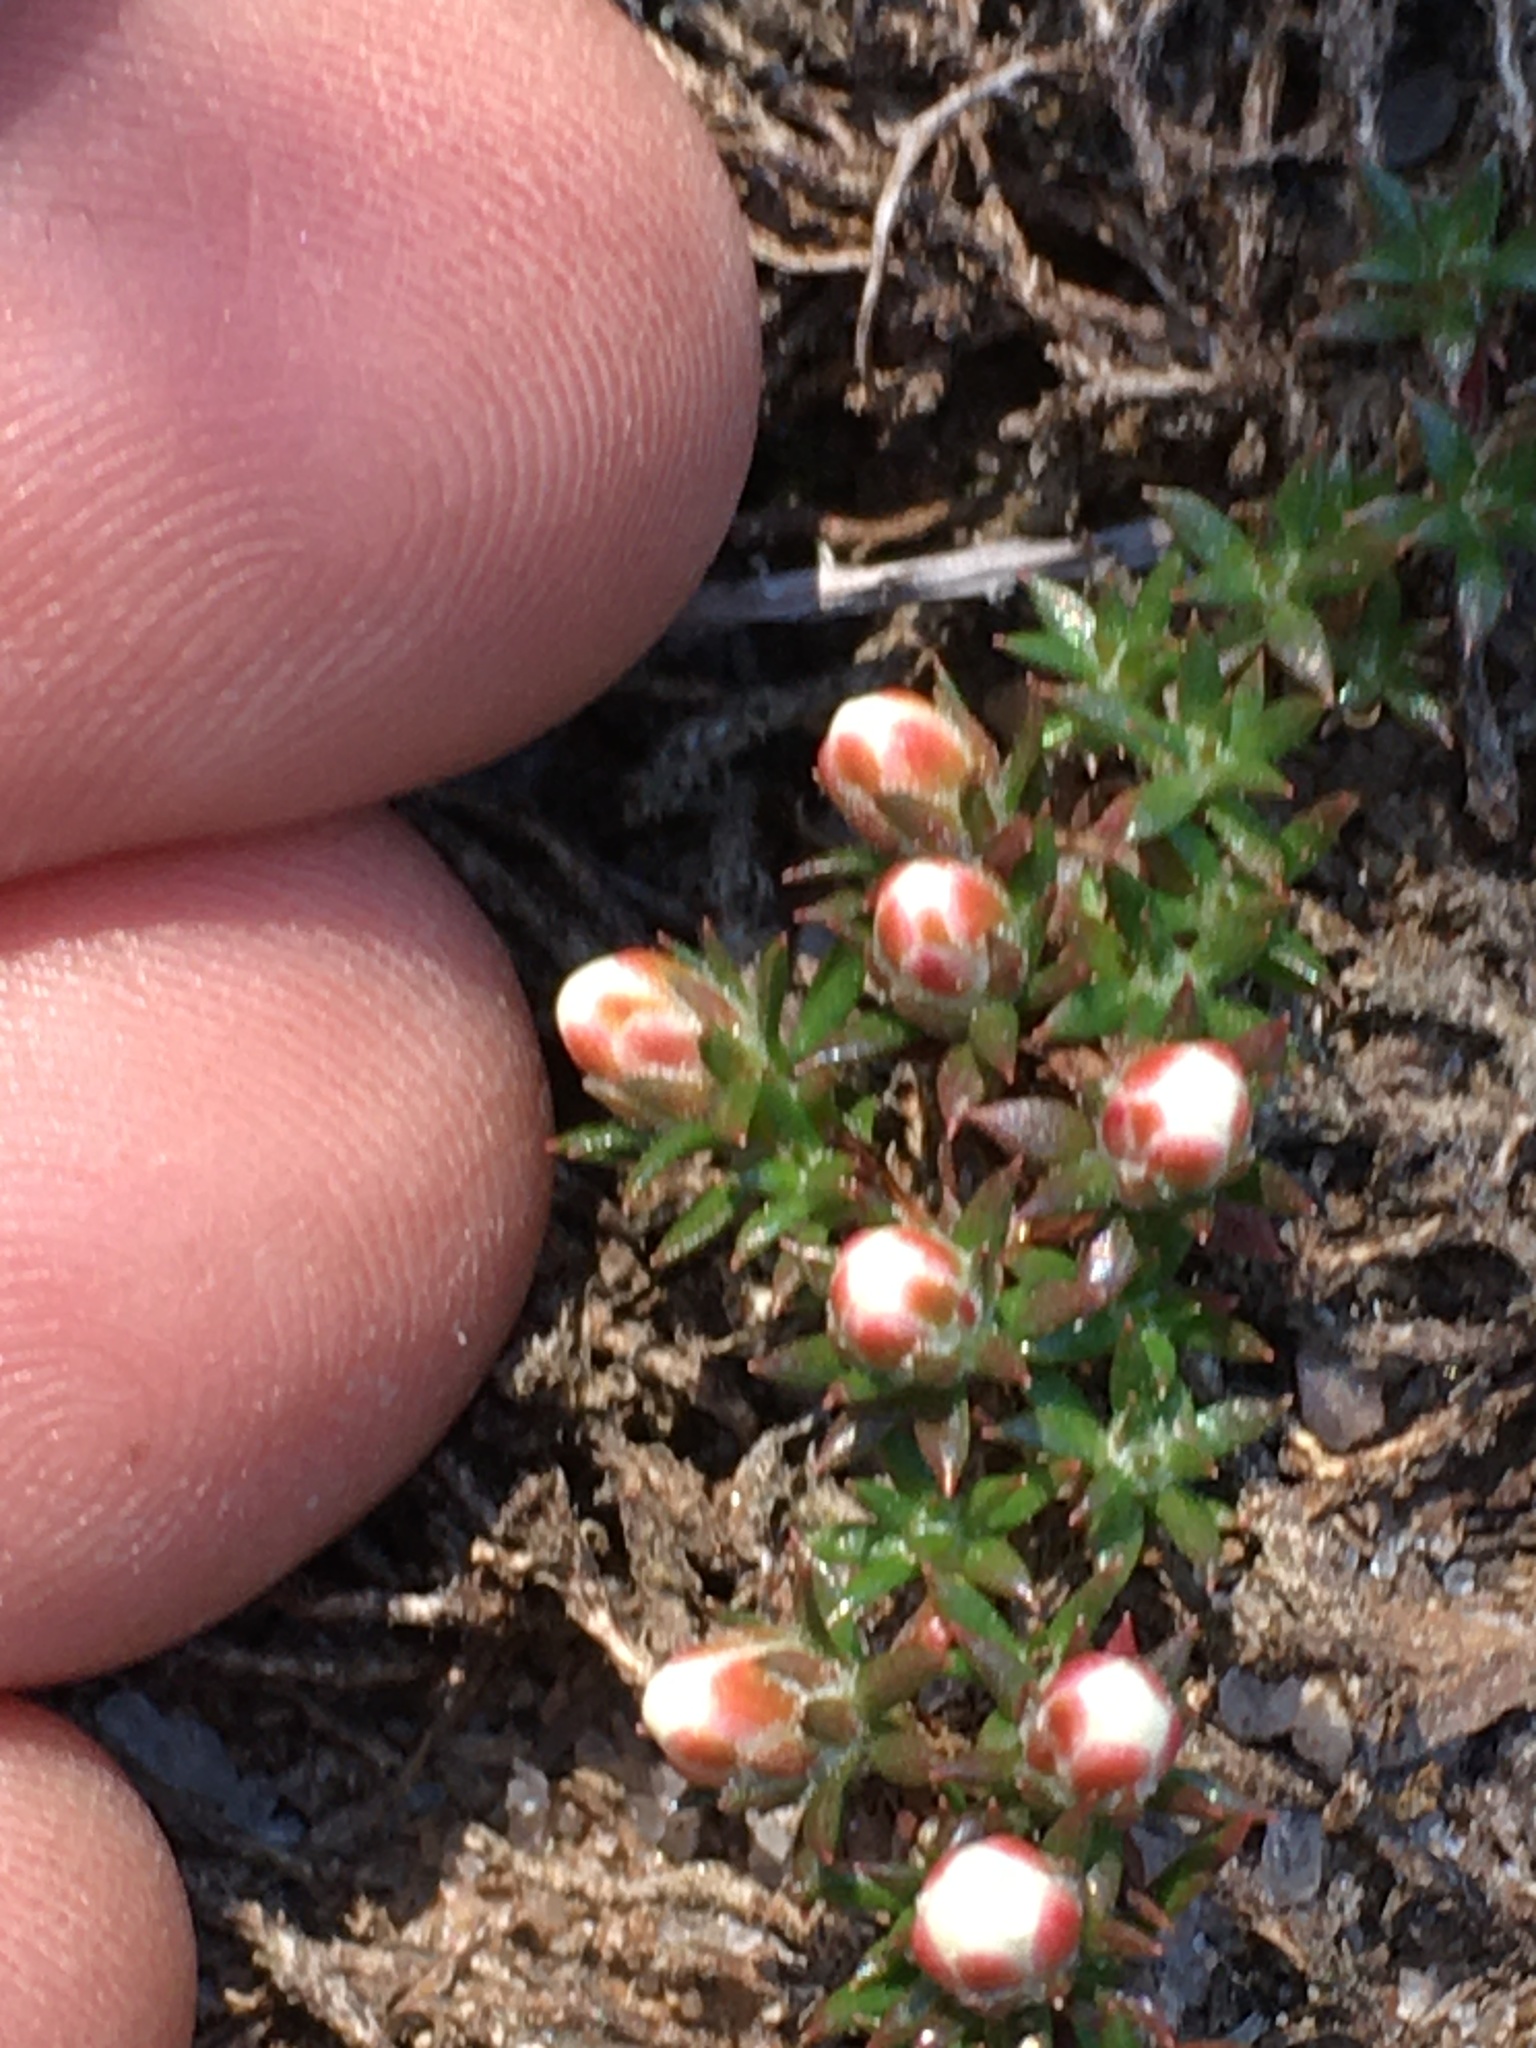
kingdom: Plantae
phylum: Tracheophyta
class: Magnoliopsida
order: Ericales
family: Diapensiaceae
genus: Pyxidanthera
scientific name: Pyxidanthera brevifolia
